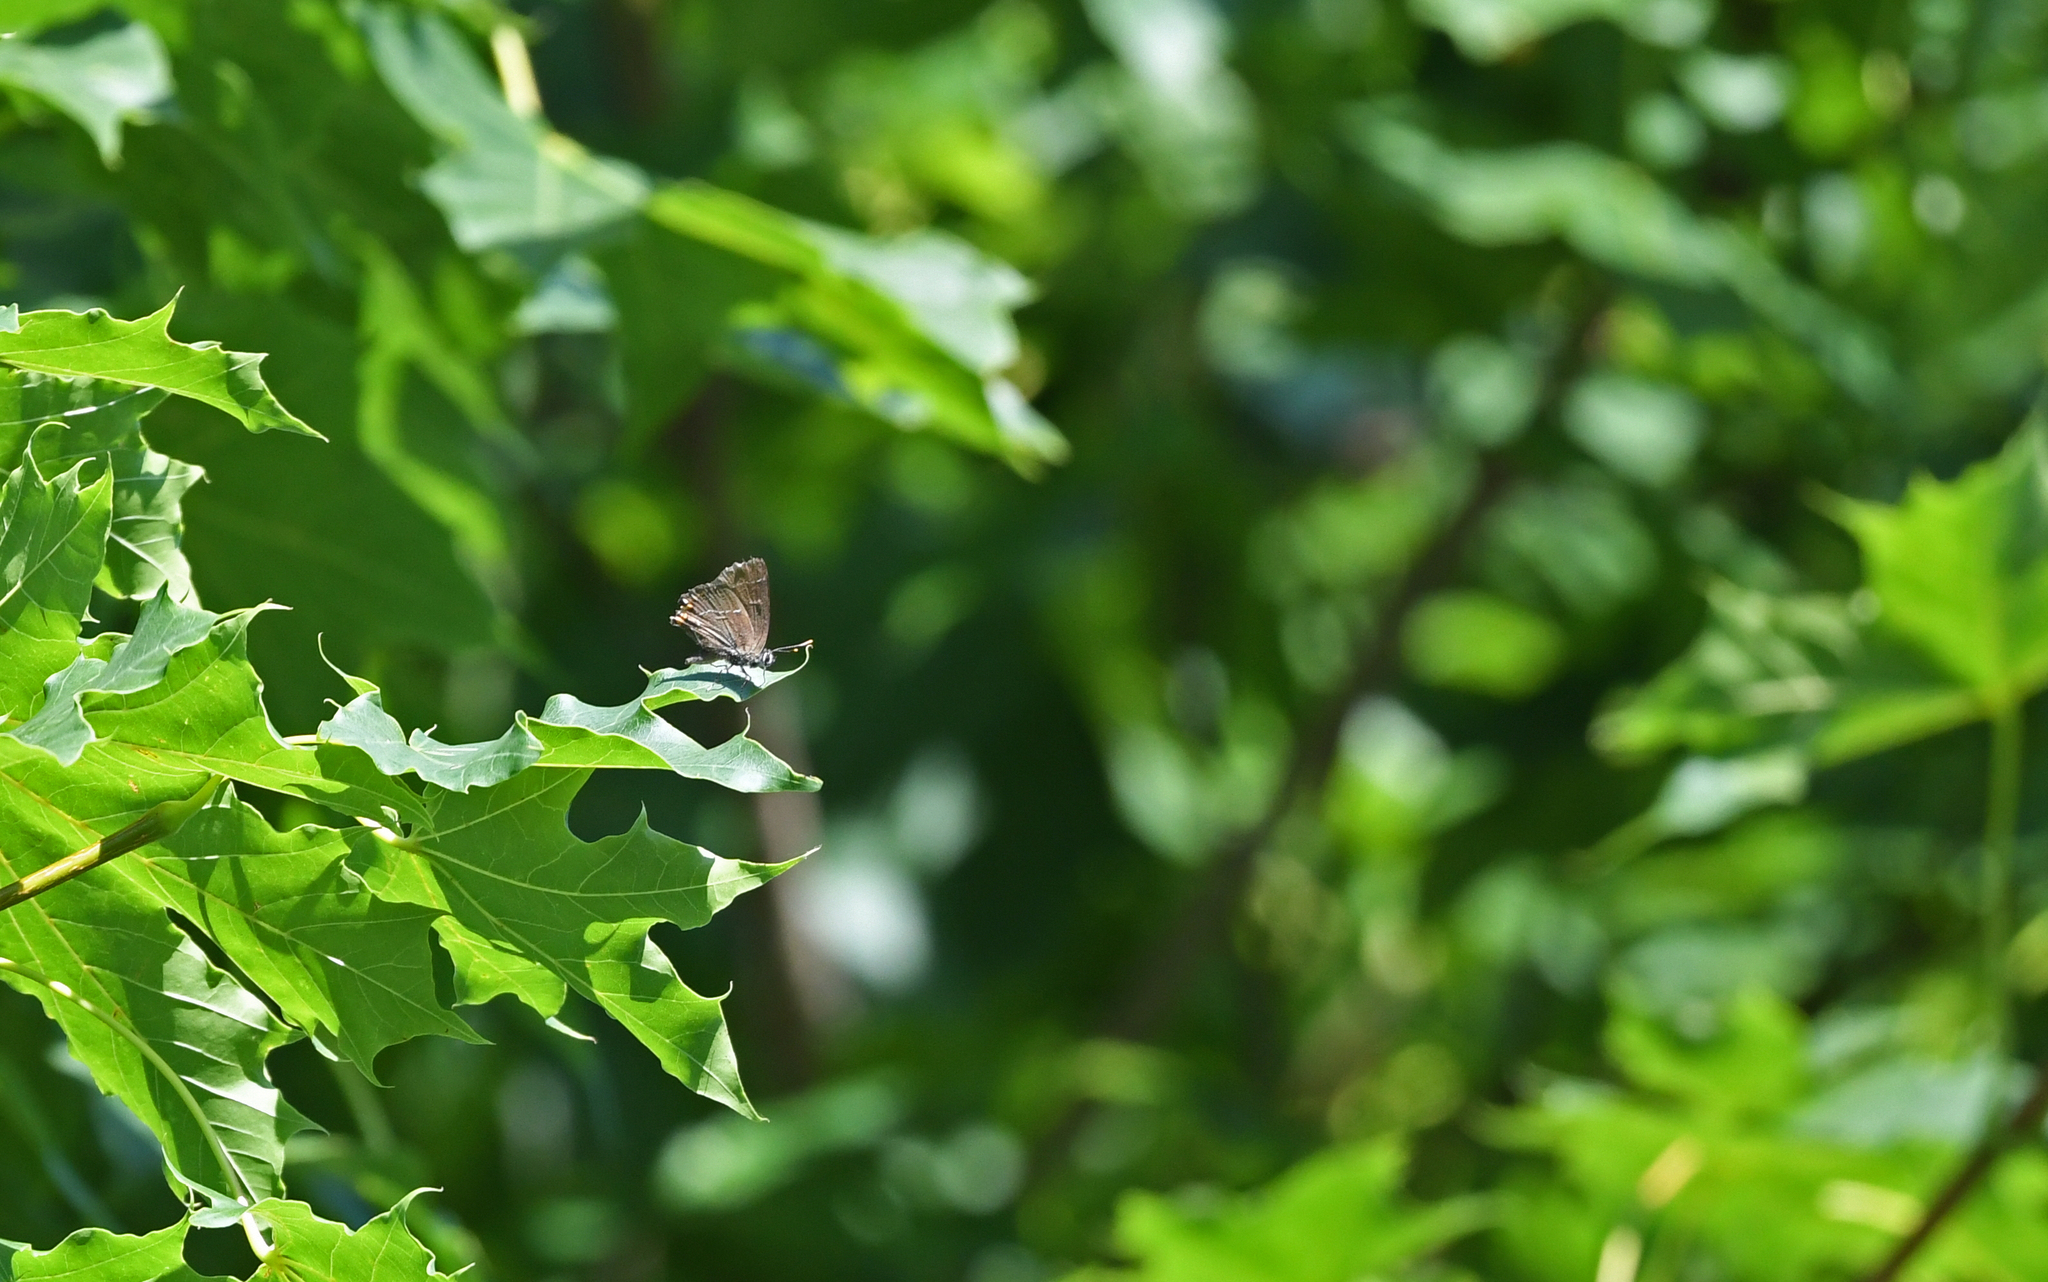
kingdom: Animalia
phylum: Arthropoda
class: Insecta
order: Lepidoptera
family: Lycaenidae
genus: Satyrium
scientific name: Satyrium w-album
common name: White-letter hairstreak
